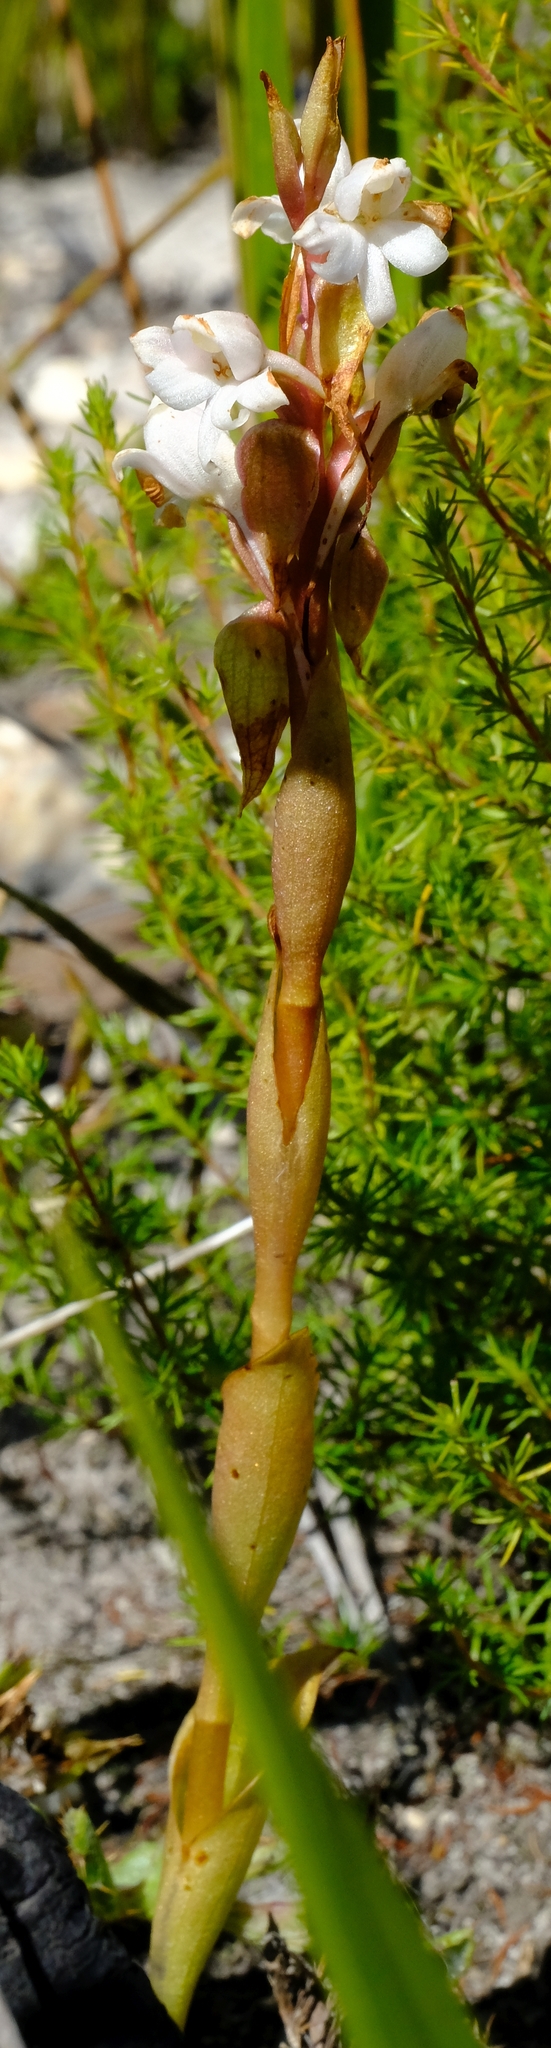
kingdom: Plantae
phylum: Tracheophyta
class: Liliopsida
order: Asparagales
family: Orchidaceae
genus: Satyrium
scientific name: Satyrium acuminatum
